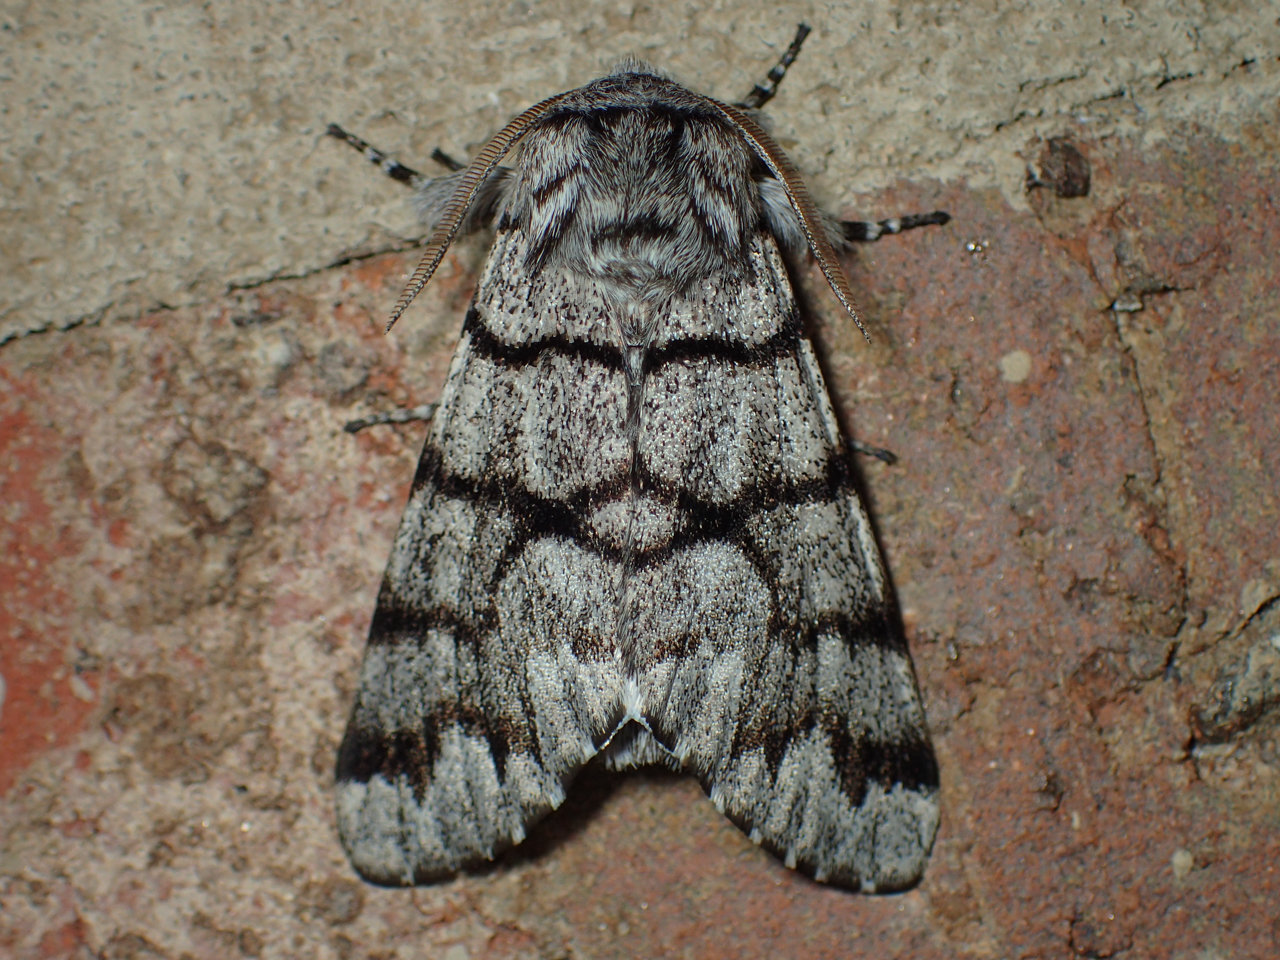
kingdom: Animalia
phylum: Arthropoda
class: Insecta
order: Lepidoptera
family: Noctuidae
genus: Panthea
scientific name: Panthea furcilla
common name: Eastern panthea moth
